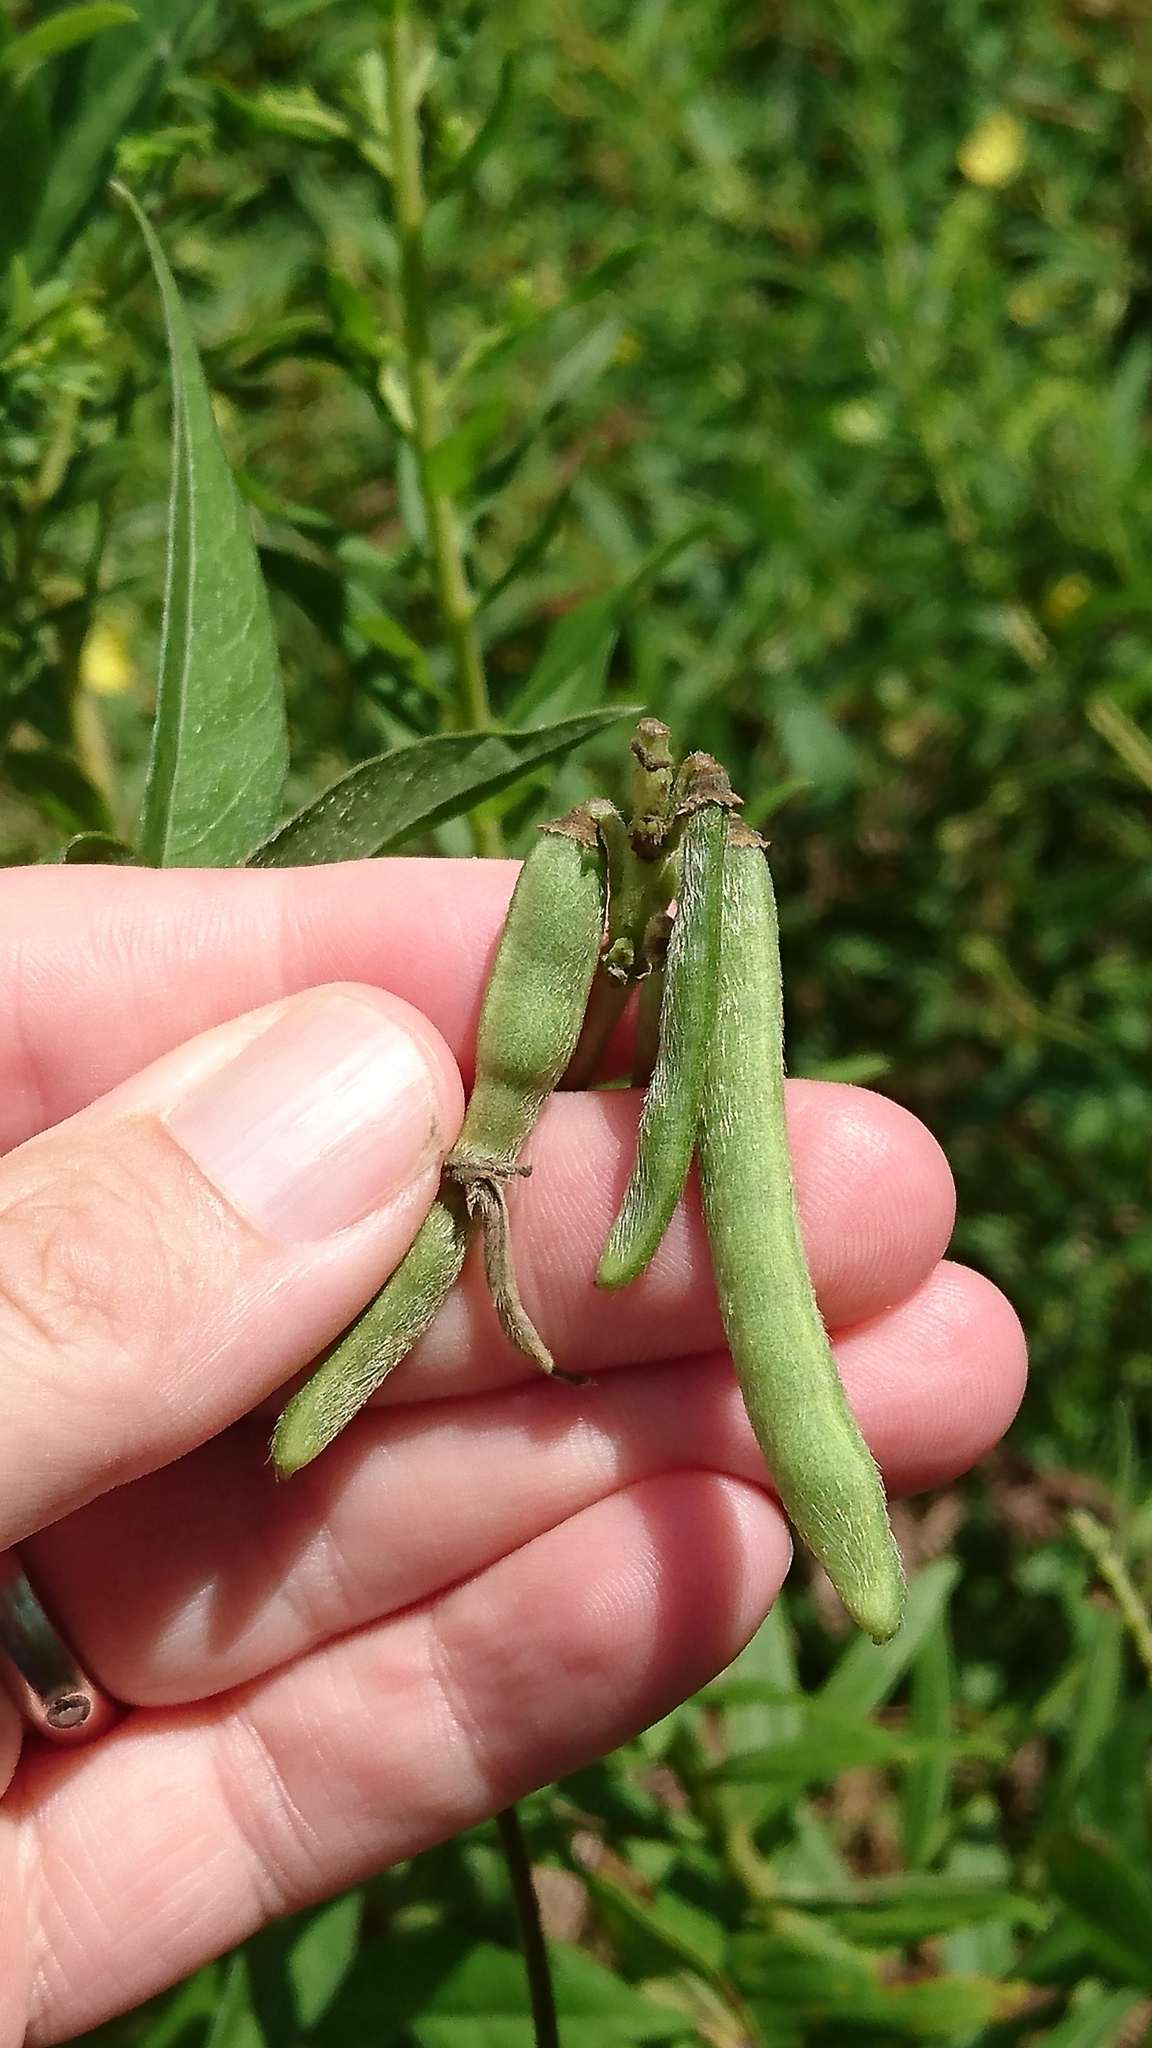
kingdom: Plantae
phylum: Tracheophyta
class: Magnoliopsida
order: Fabales
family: Fabaceae
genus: Vigna
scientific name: Vigna luteola
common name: Hairypod cowpea
